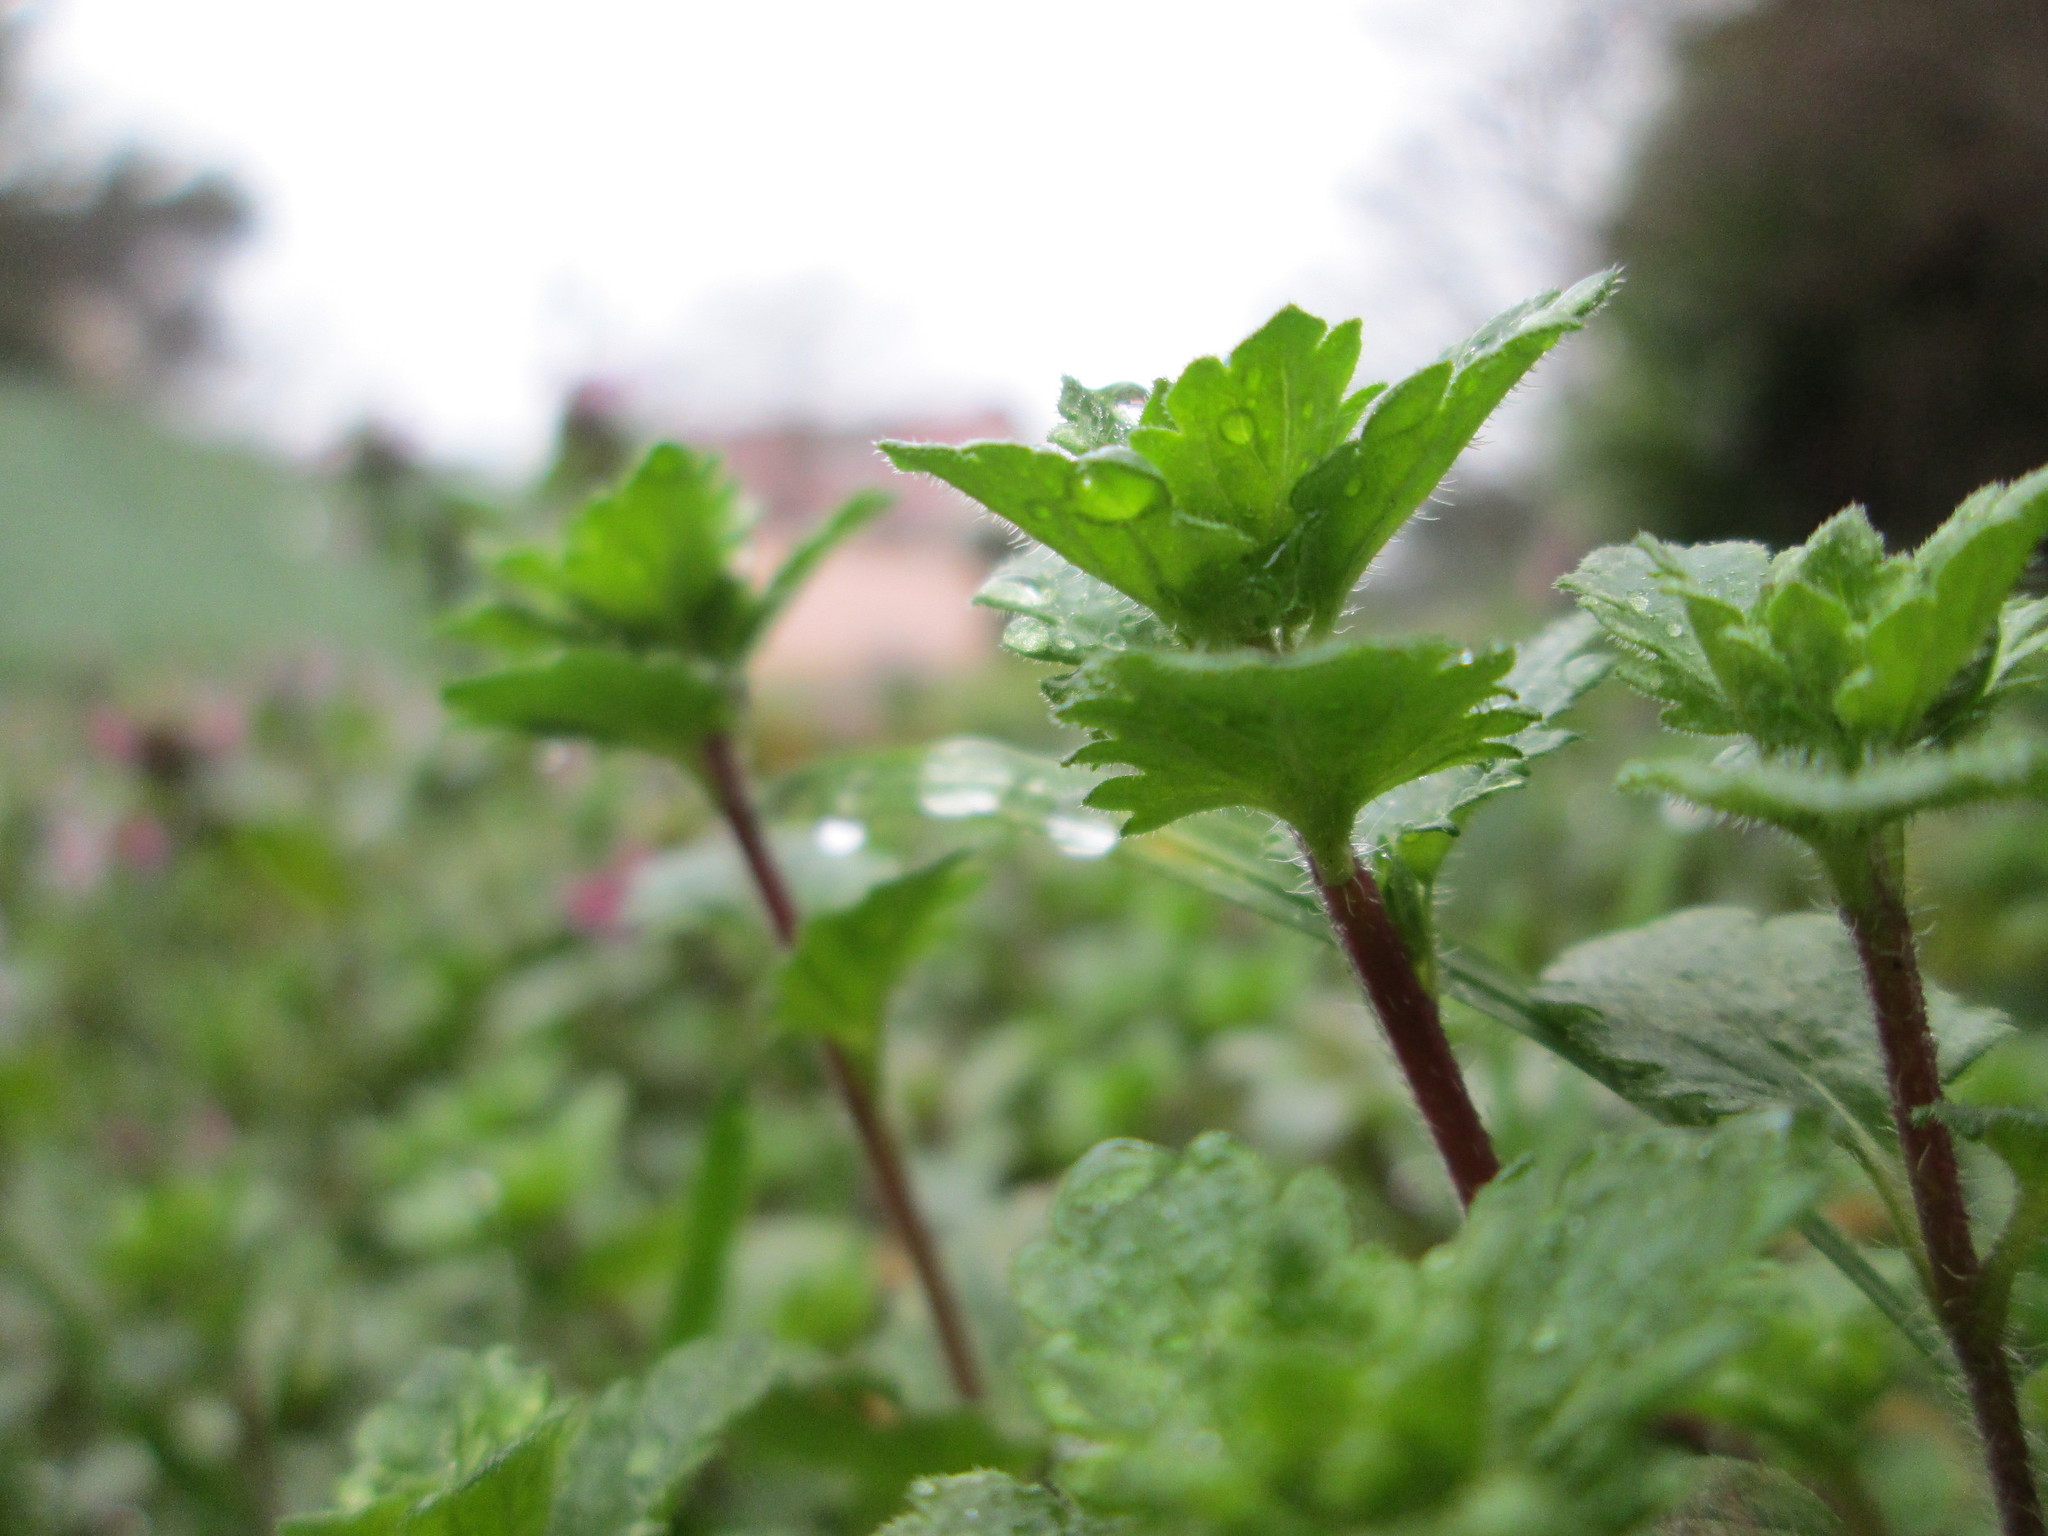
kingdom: Plantae
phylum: Tracheophyta
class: Magnoliopsida
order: Lamiales
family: Plantaginaceae
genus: Veronica
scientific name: Veronica persica
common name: Common field-speedwell
